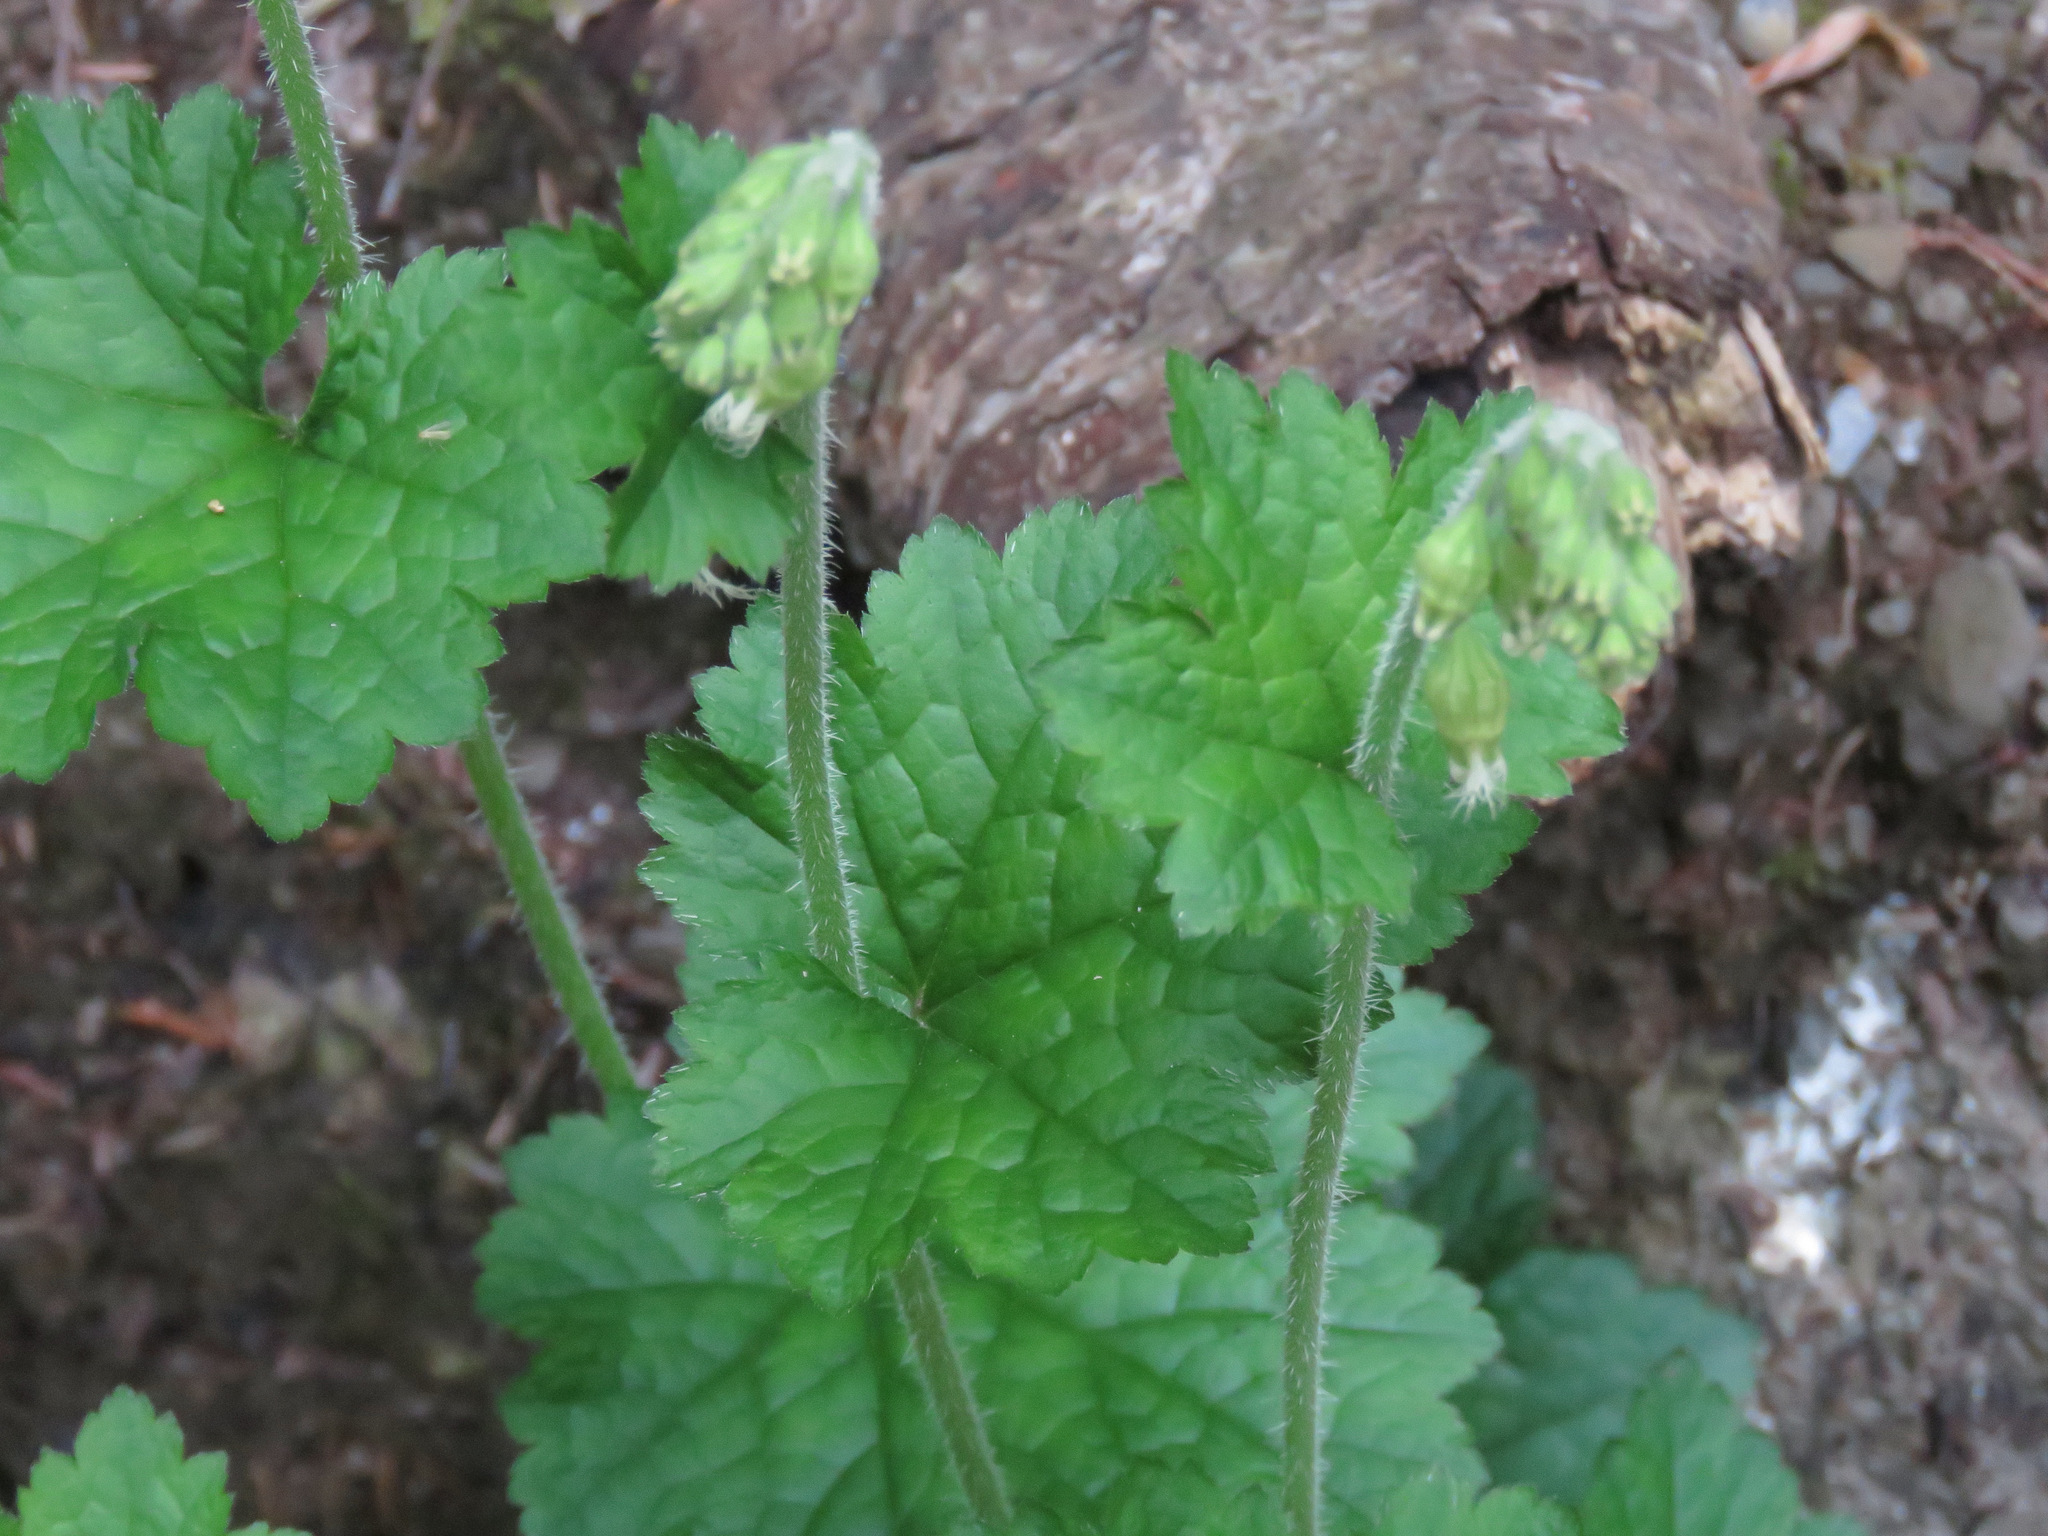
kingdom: Plantae
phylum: Tracheophyta
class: Magnoliopsida
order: Saxifragales
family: Saxifragaceae
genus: Tellima
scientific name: Tellima grandiflora
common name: Fringecups
